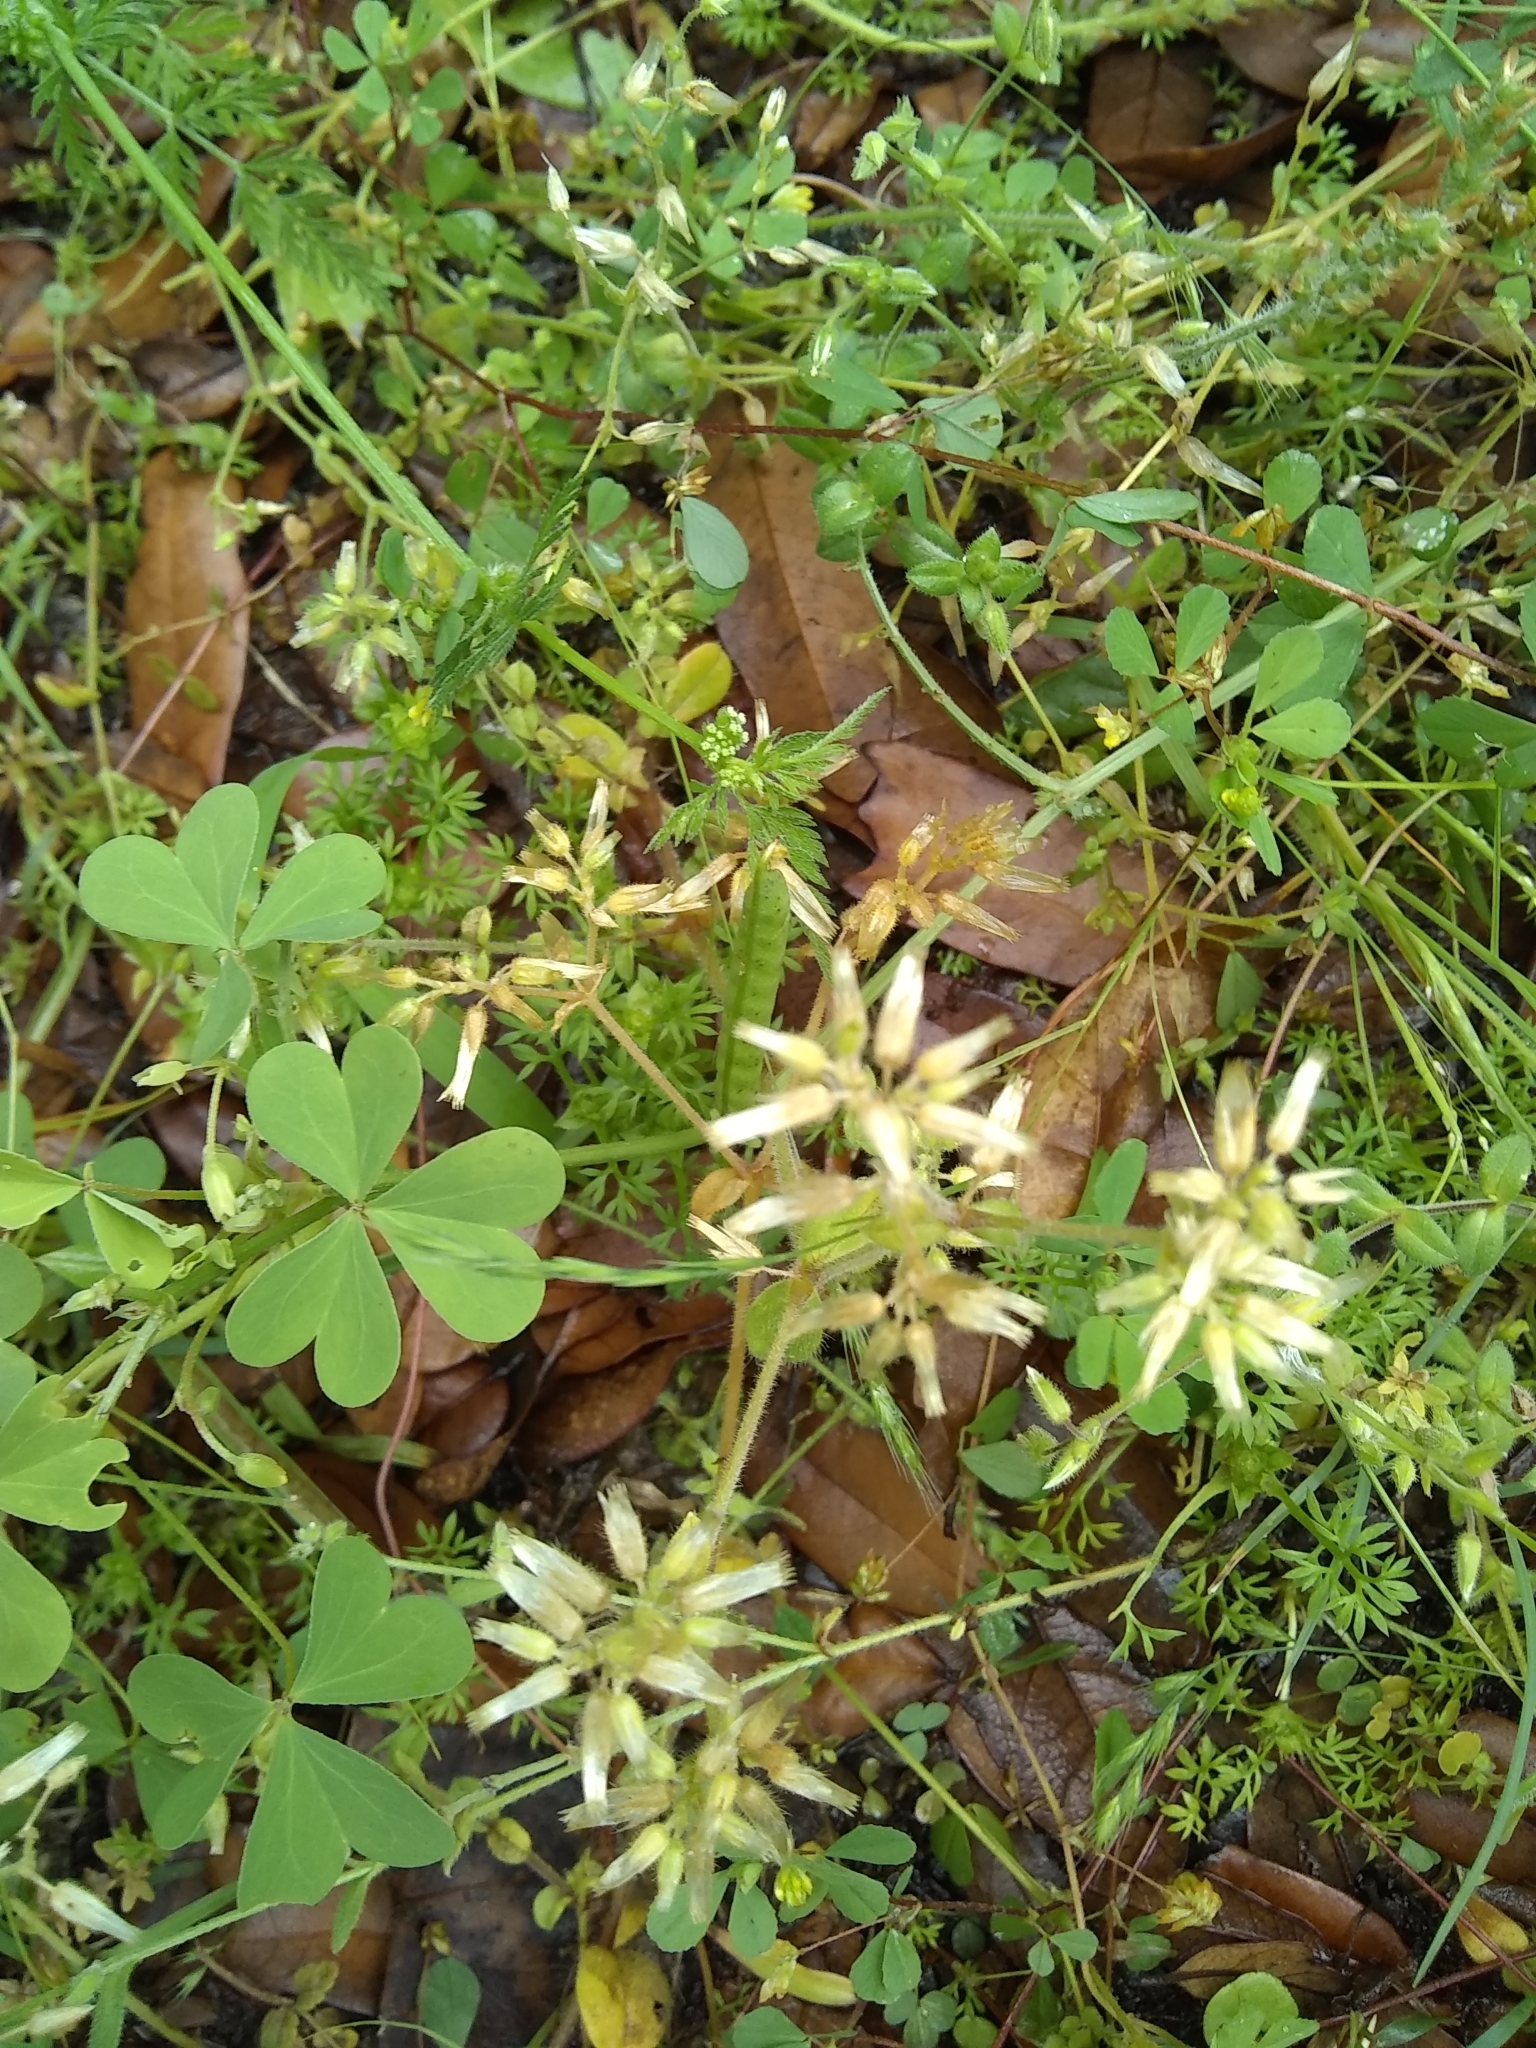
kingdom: Plantae
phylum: Tracheophyta
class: Magnoliopsida
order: Caryophyllales
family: Caryophyllaceae
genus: Cerastium
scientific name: Cerastium glomeratum
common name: Sticky chickweed
